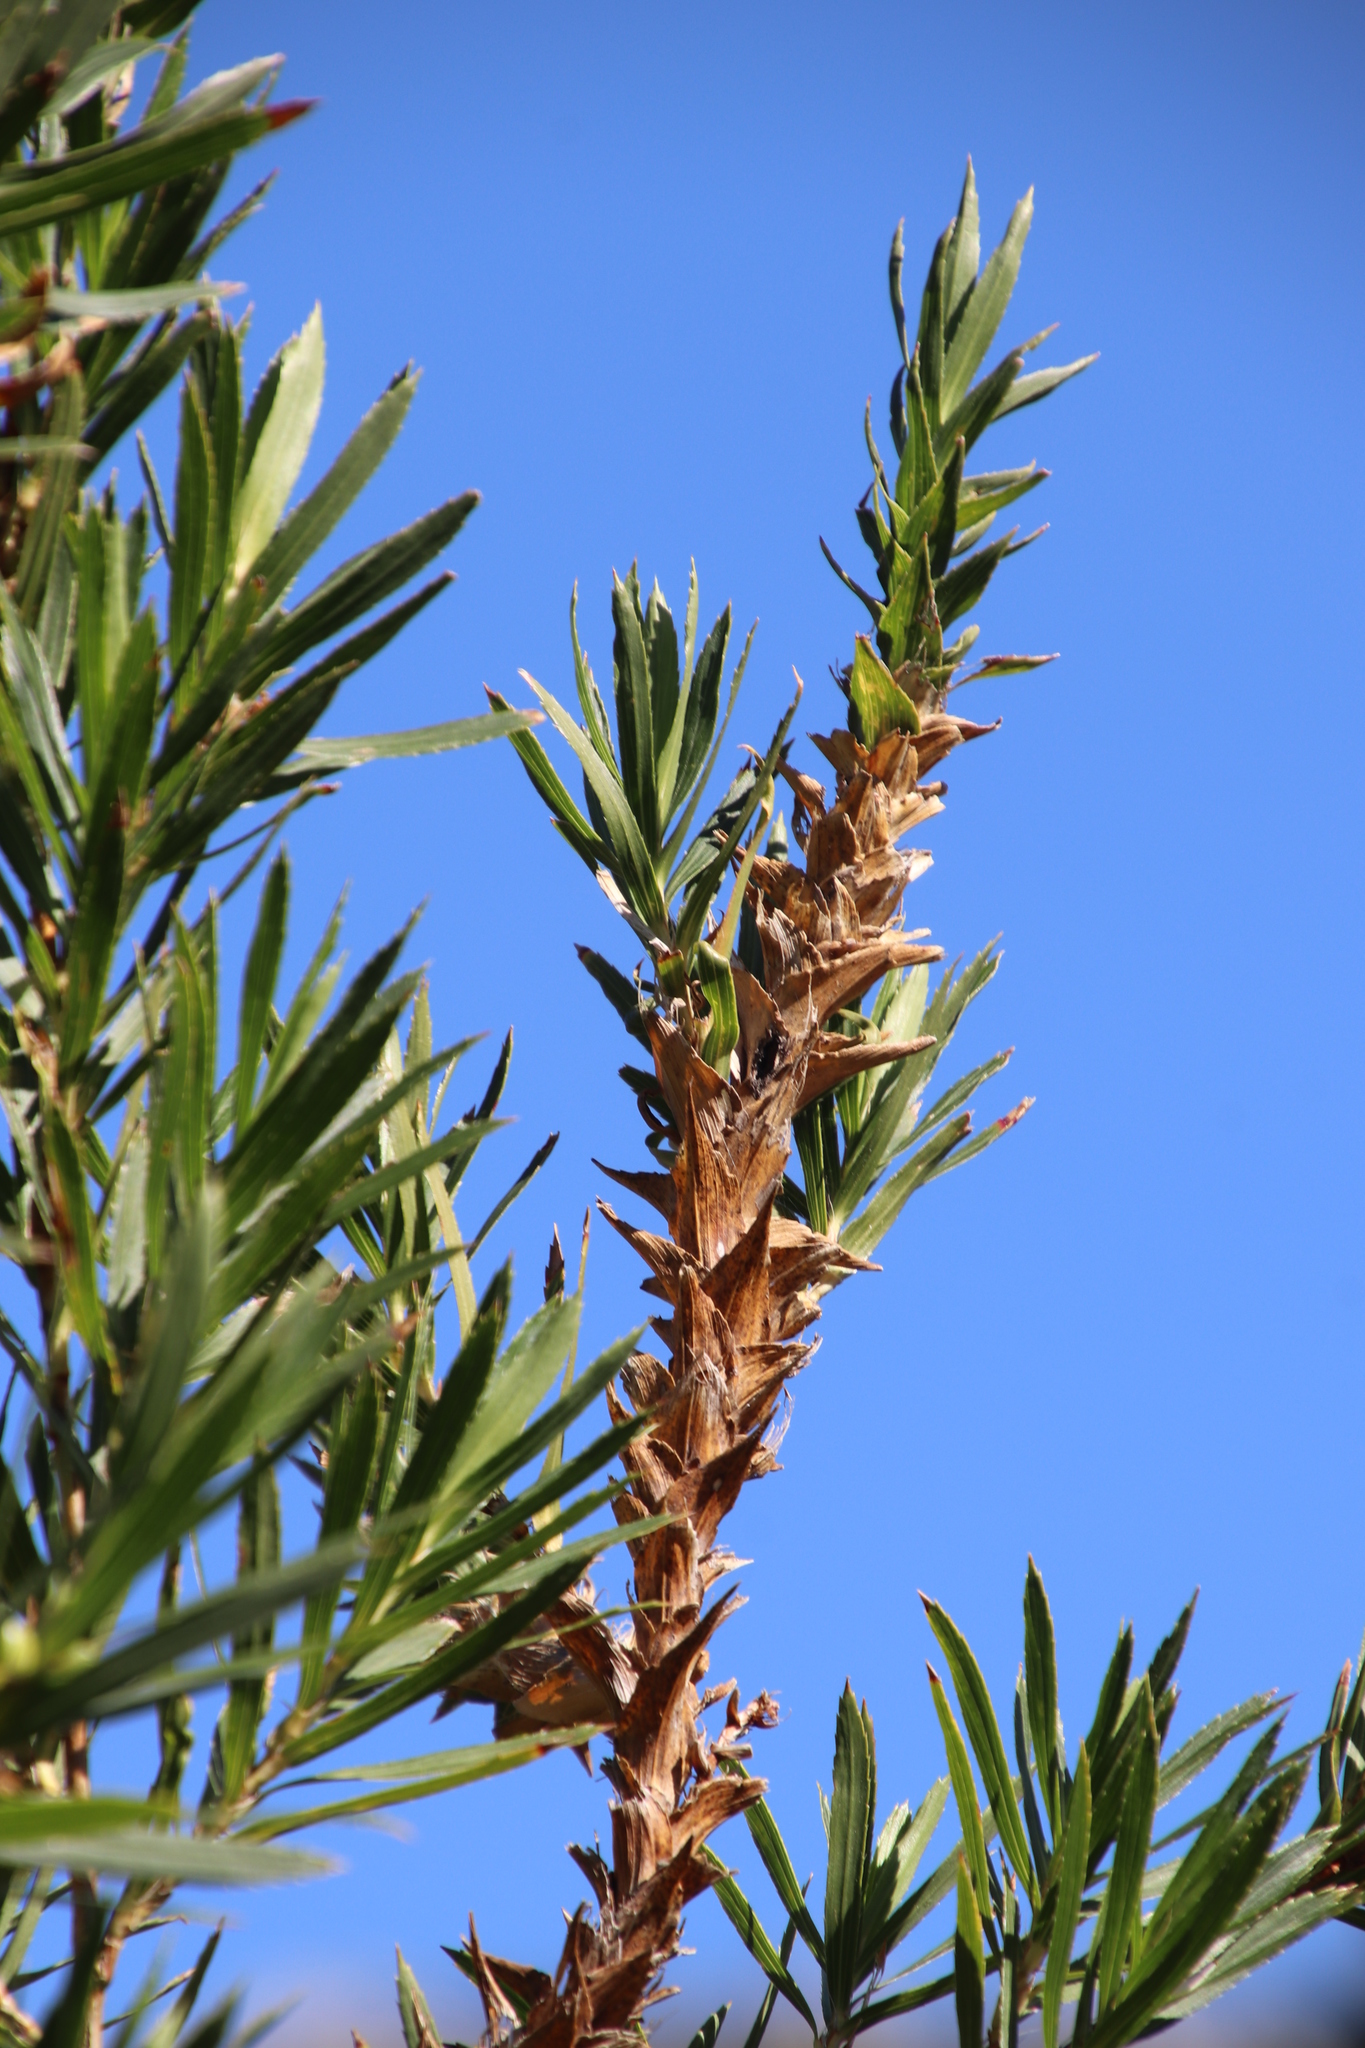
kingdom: Plantae
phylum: Tracheophyta
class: Magnoliopsida
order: Rosales
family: Rosaceae
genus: Cliffortia
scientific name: Cliffortia heterophylla
